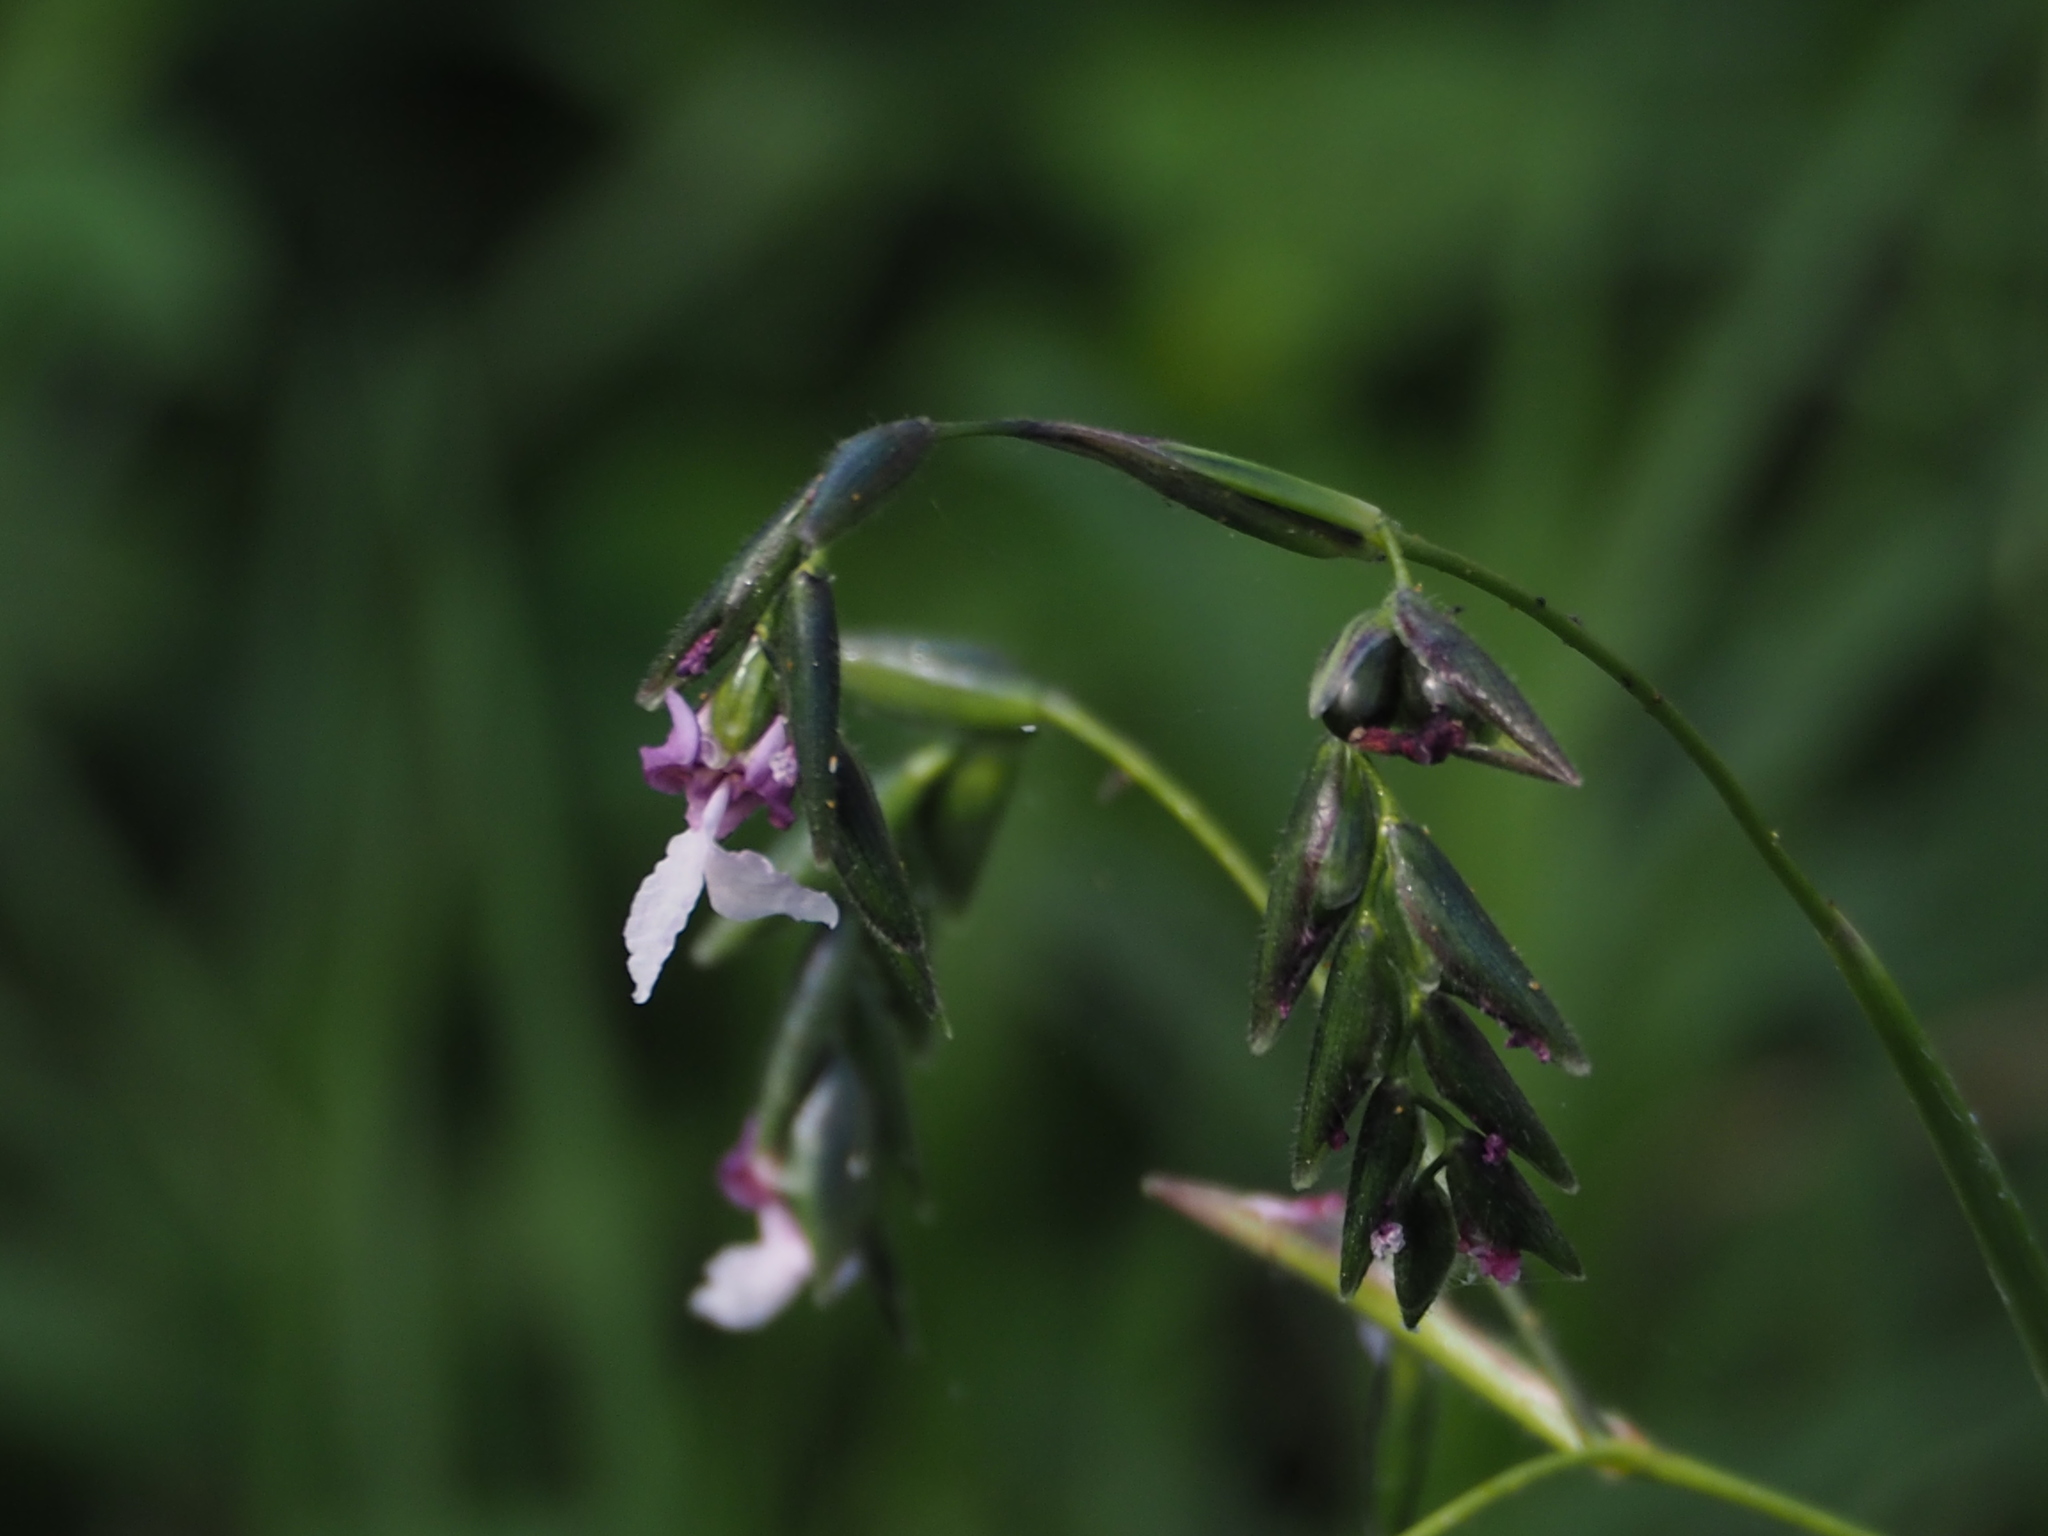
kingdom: Plantae
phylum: Tracheophyta
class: Liliopsida
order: Zingiberales
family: Marantaceae
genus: Thalia
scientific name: Thalia geniculata
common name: Arrowroot
